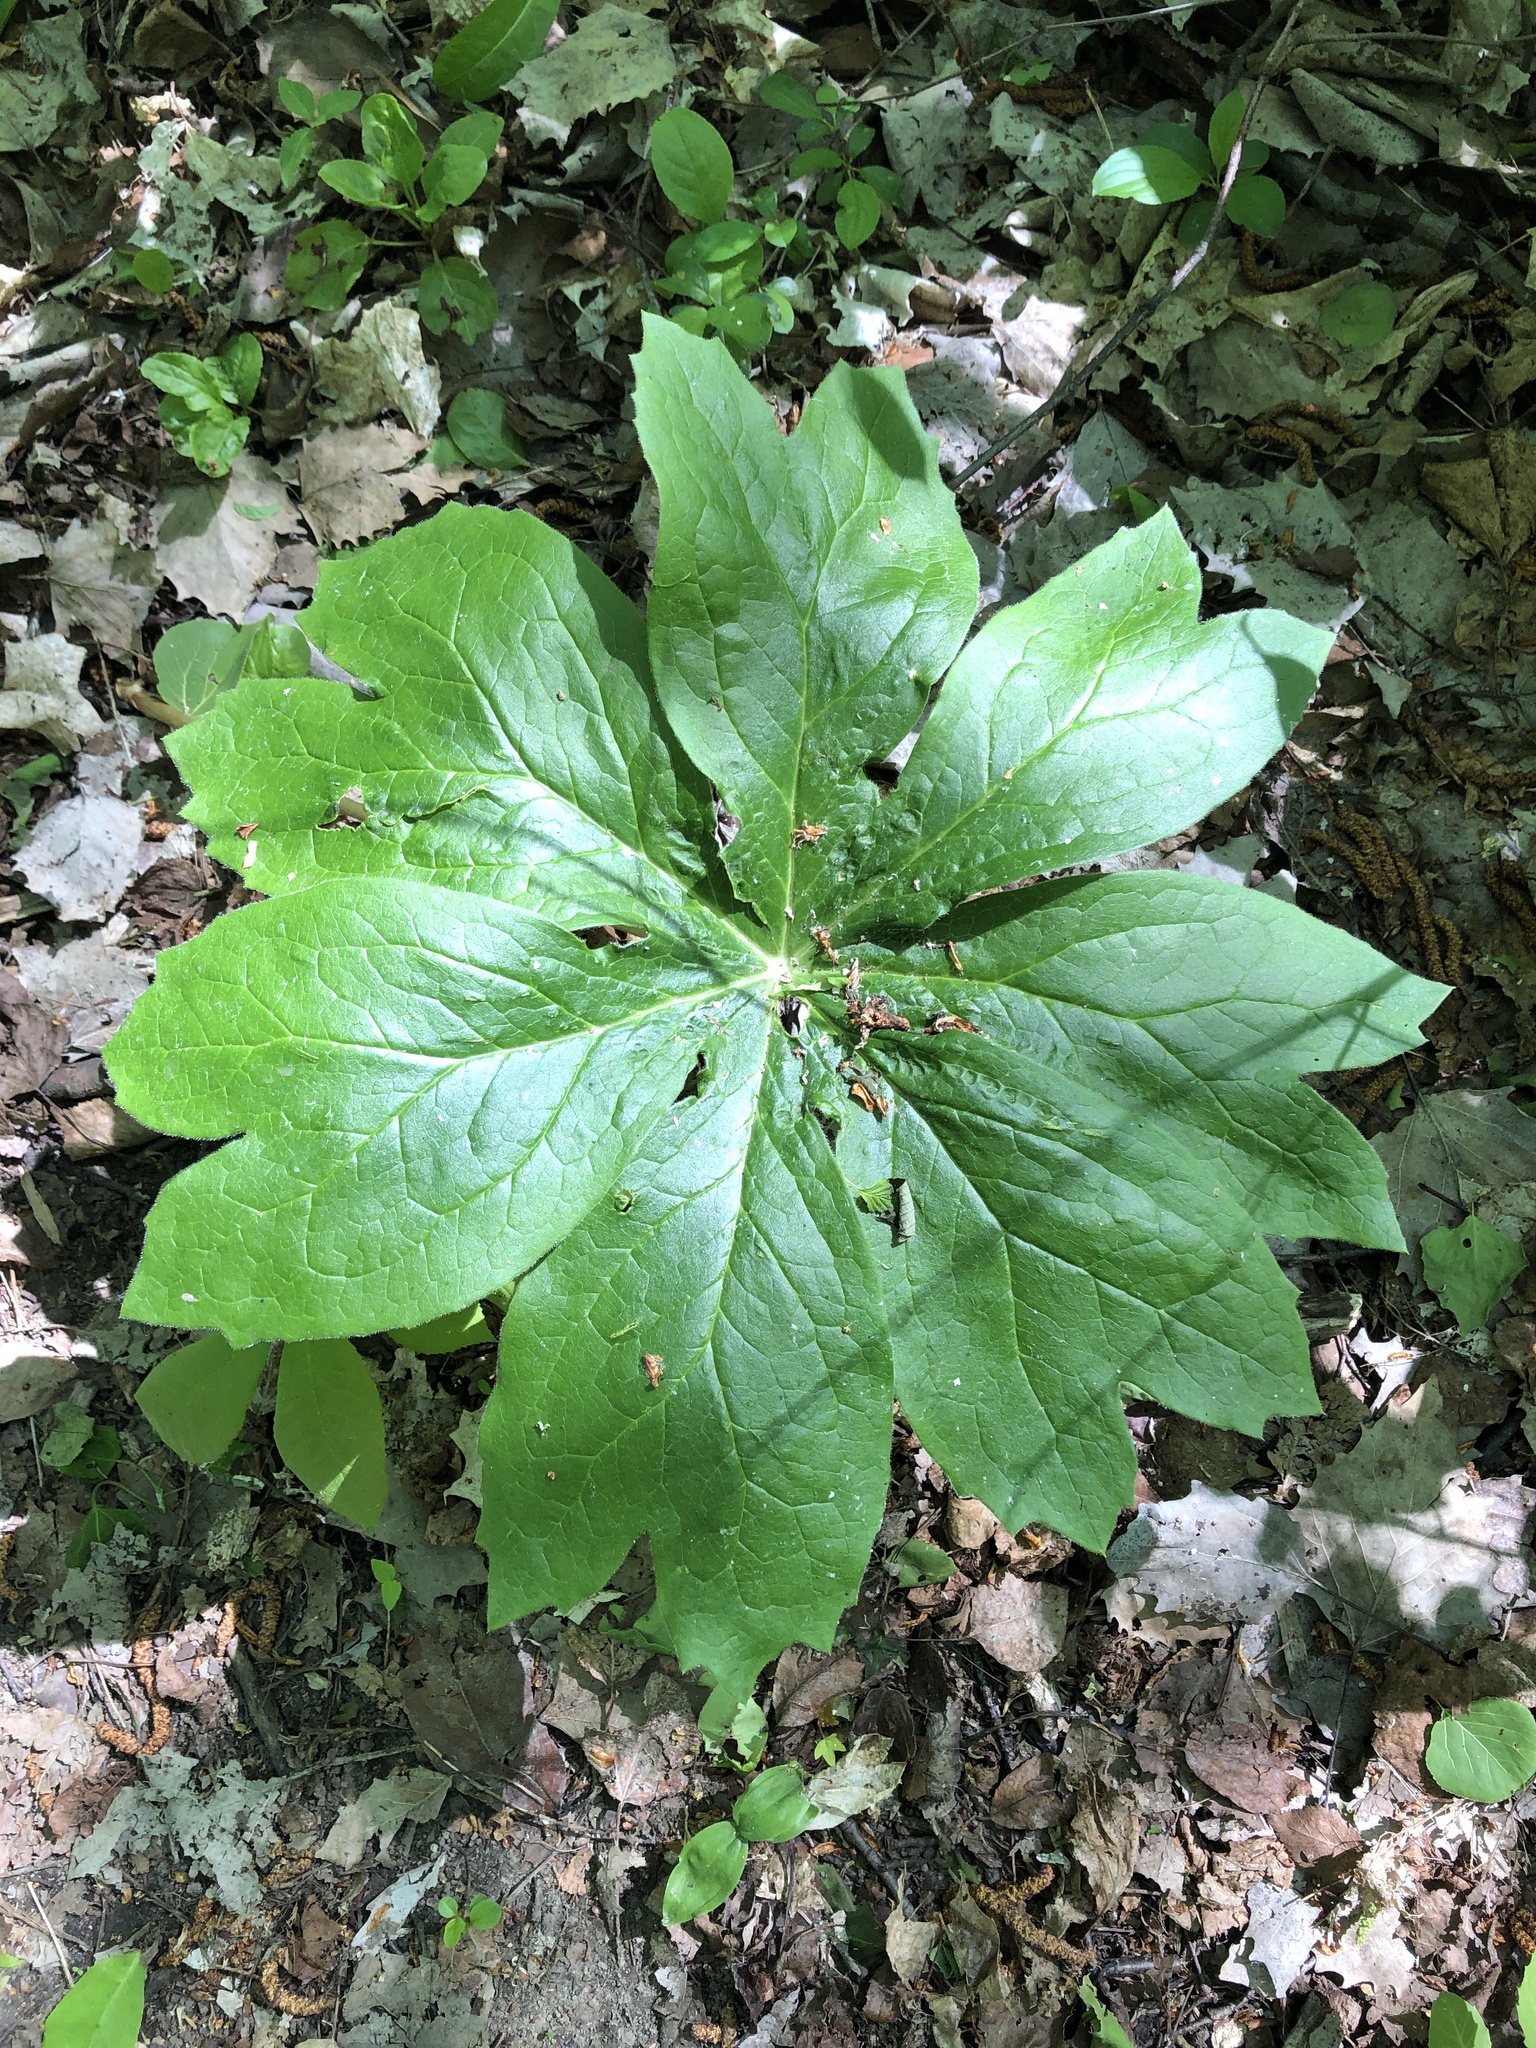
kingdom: Plantae
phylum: Tracheophyta
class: Magnoliopsida
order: Ranunculales
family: Berberidaceae
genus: Podophyllum
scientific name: Podophyllum peltatum
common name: Wild mandrake
